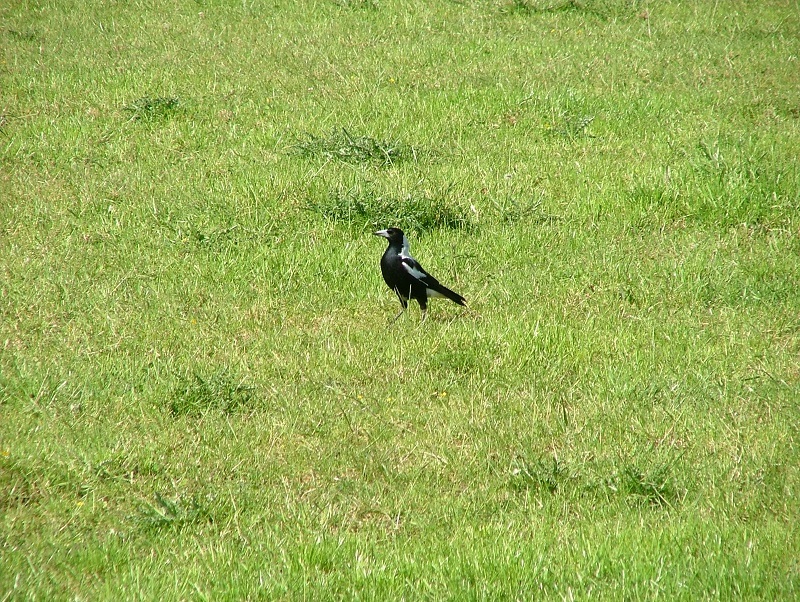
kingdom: Animalia
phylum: Chordata
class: Aves
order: Passeriformes
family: Cracticidae
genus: Gymnorhina
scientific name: Gymnorhina tibicen
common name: Australian magpie
